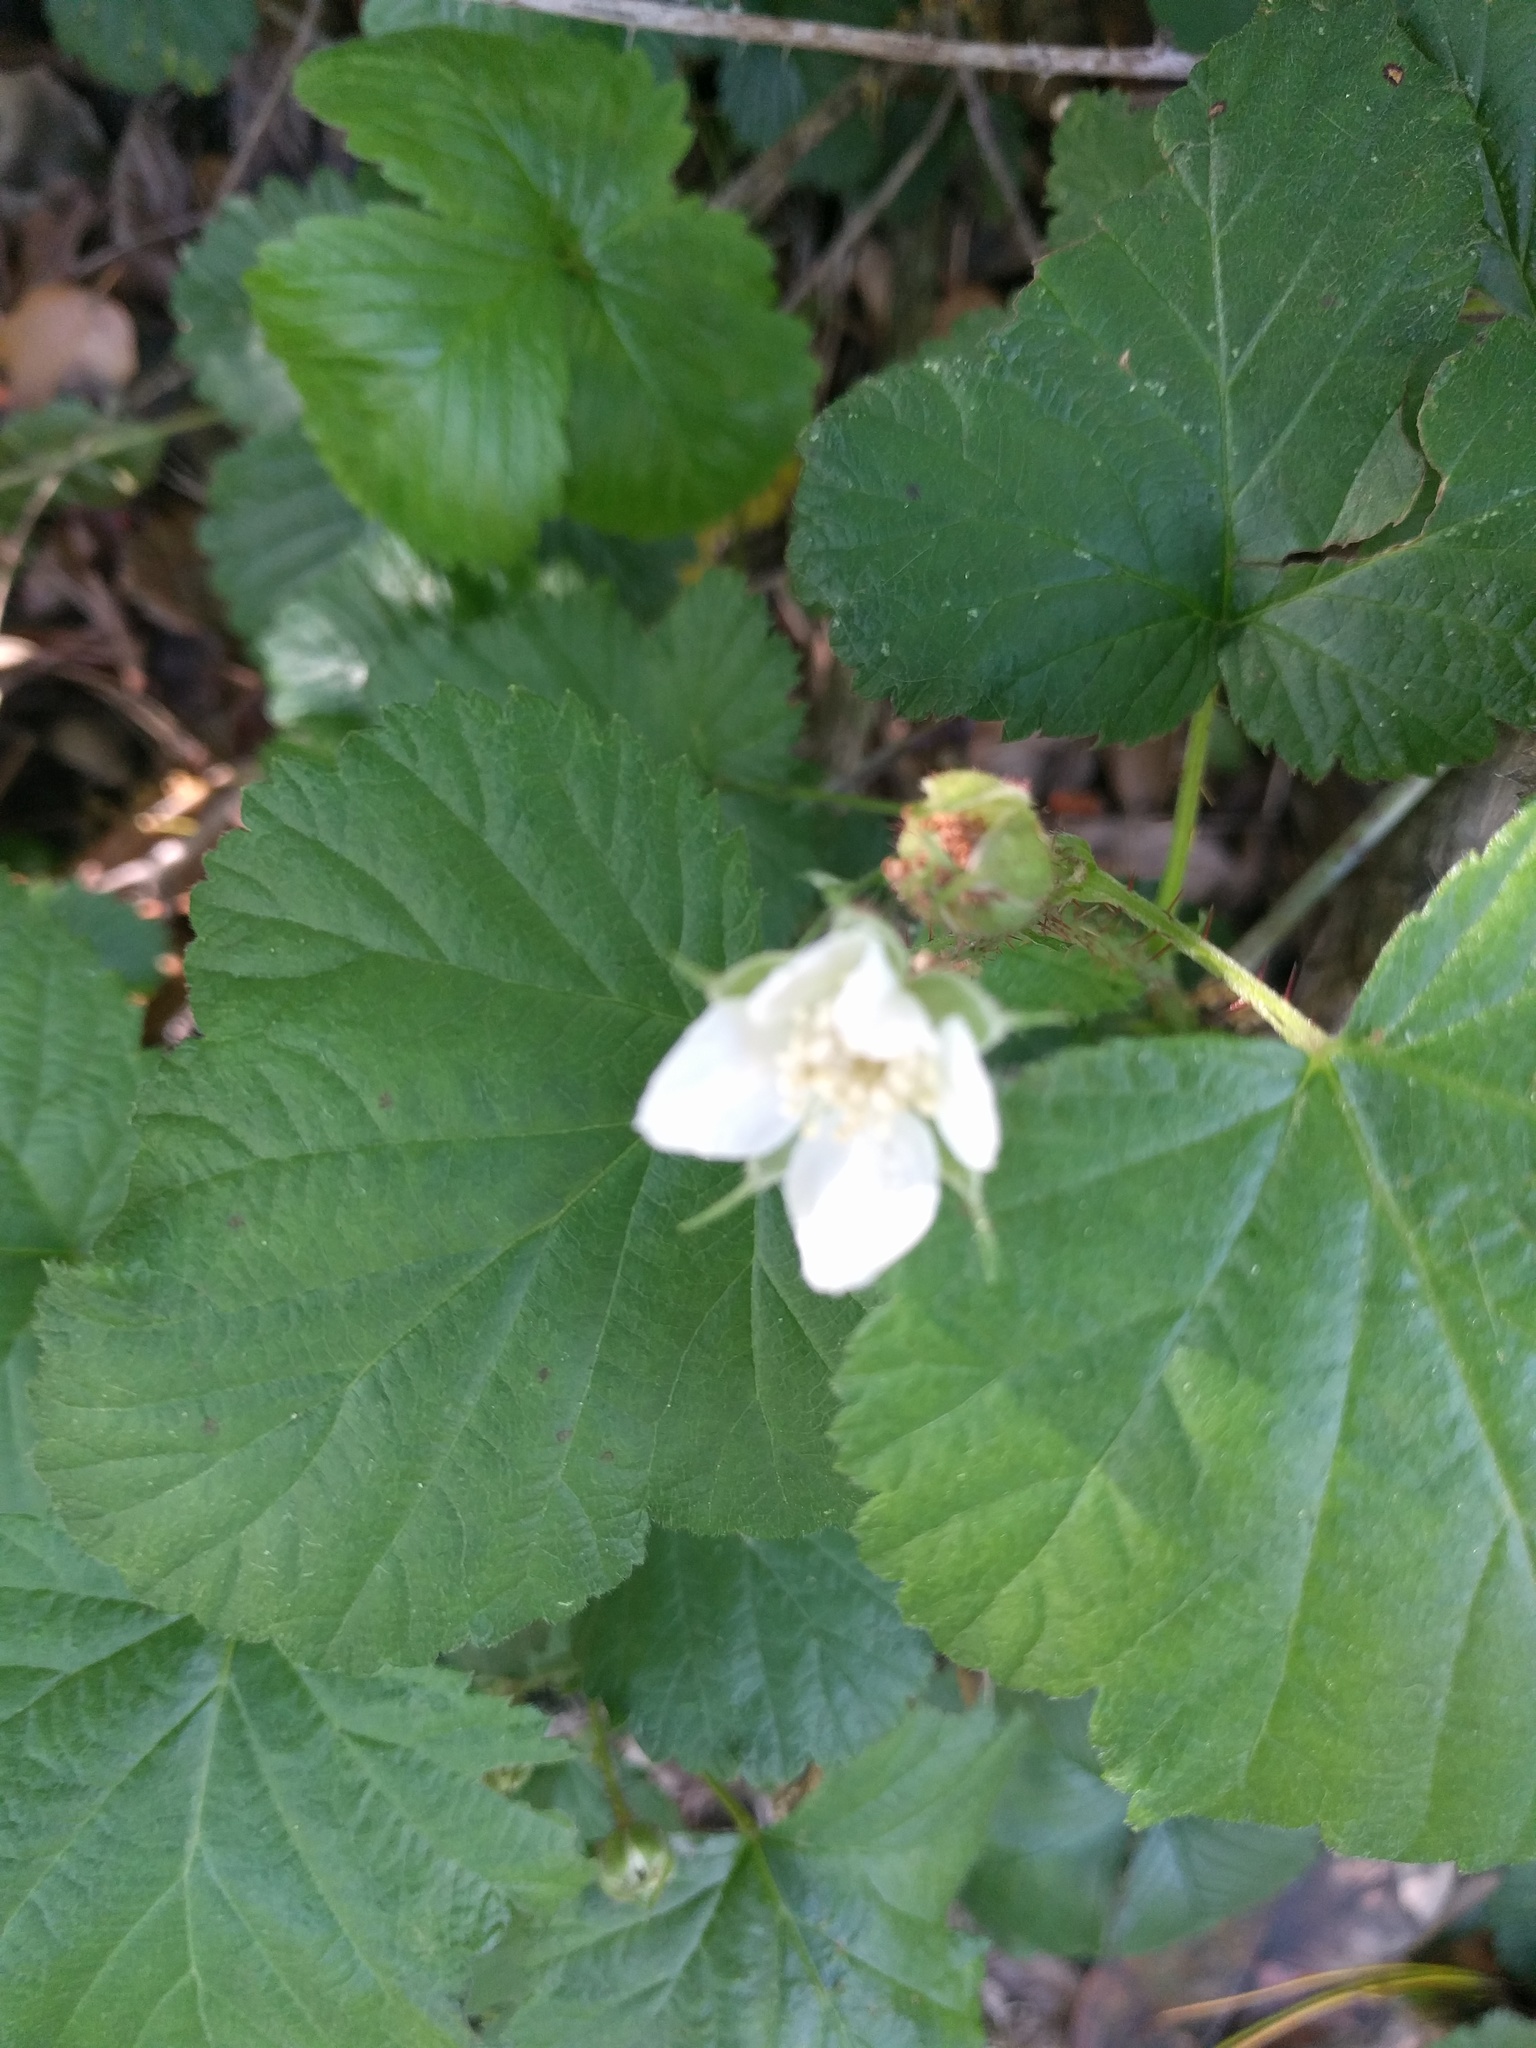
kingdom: Plantae
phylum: Tracheophyta
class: Magnoliopsida
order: Rosales
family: Rosaceae
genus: Rubus
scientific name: Rubus ursinus
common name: Pacific blackberry
